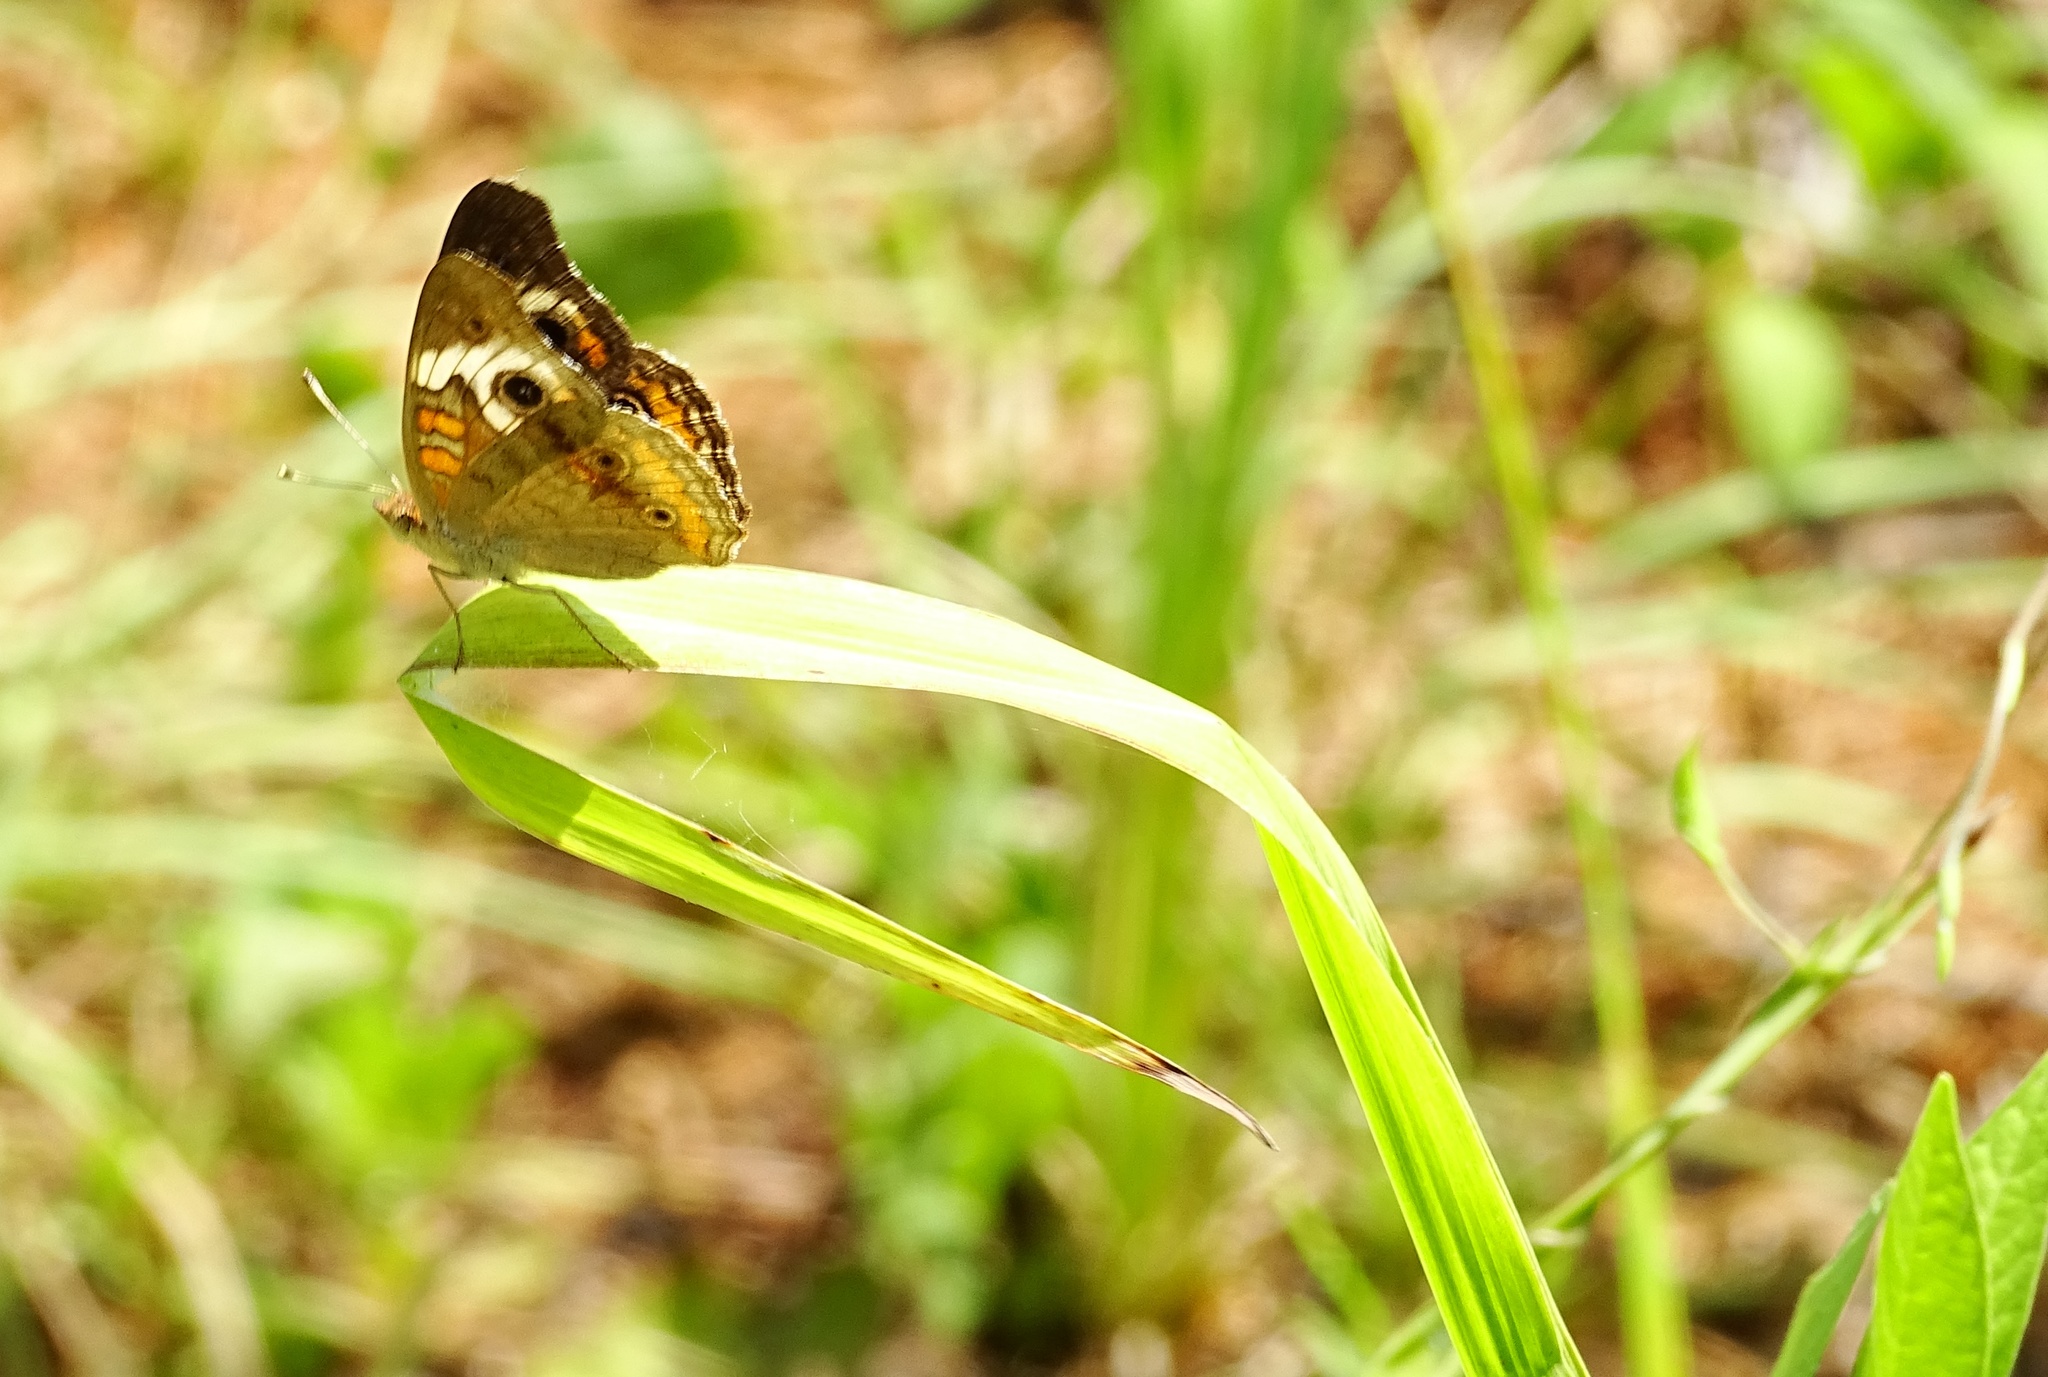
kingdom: Animalia
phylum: Arthropoda
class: Insecta
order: Lepidoptera
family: Nymphalidae
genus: Junonia
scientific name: Junonia coenia
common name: Common buckeye
